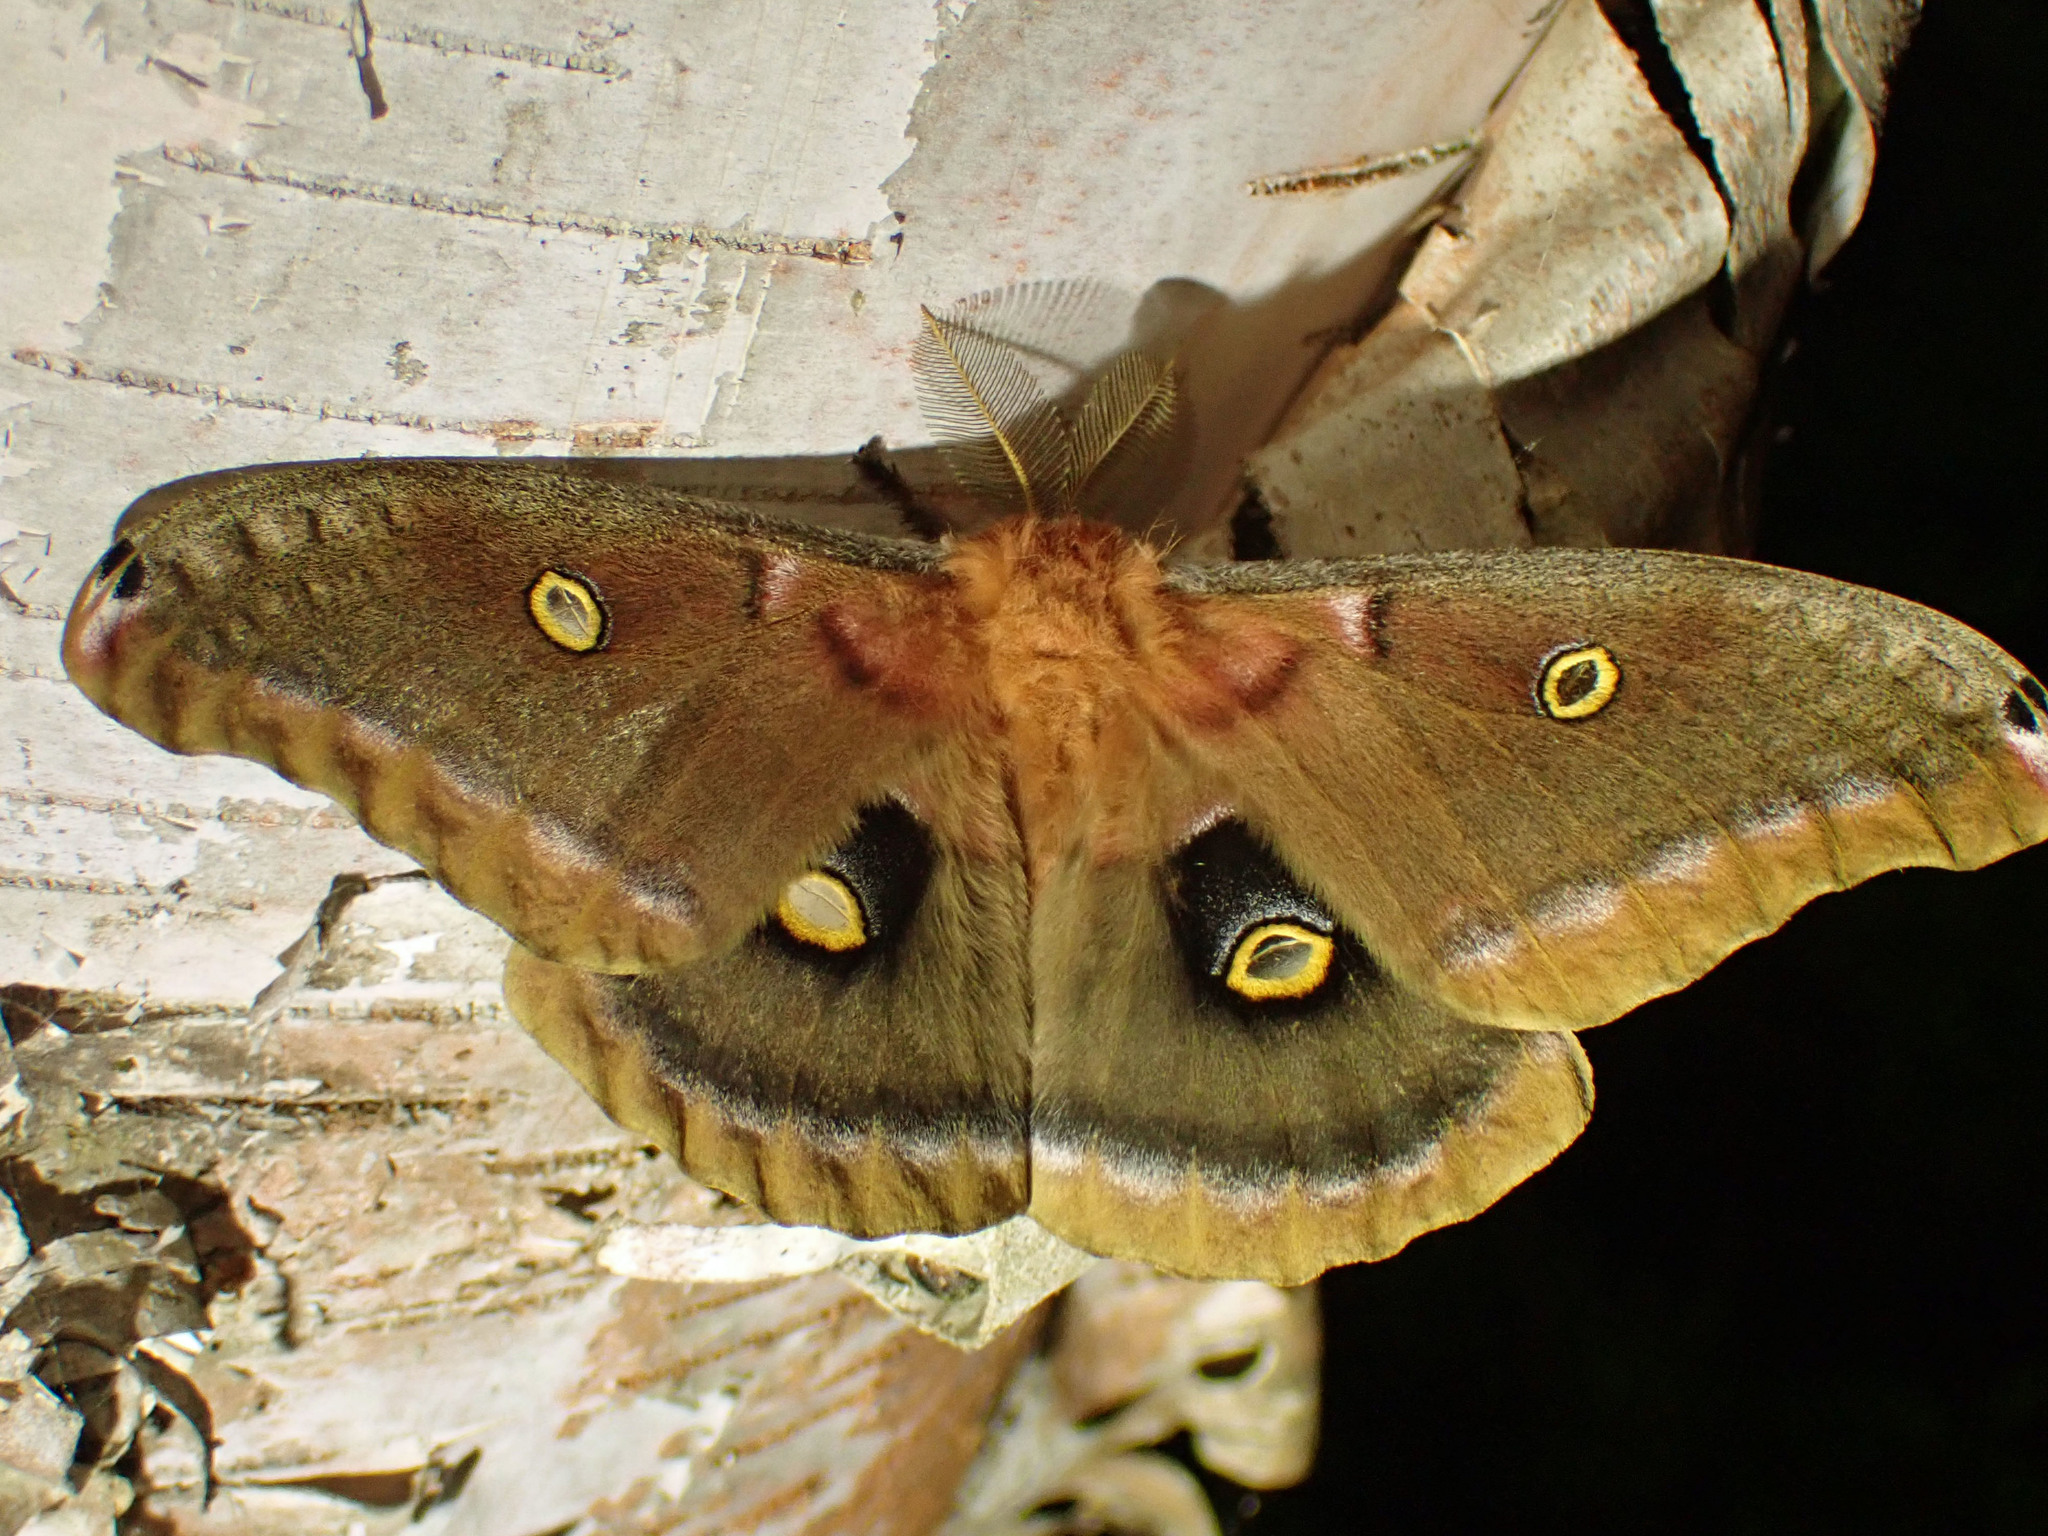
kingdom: Animalia
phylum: Arthropoda
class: Insecta
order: Lepidoptera
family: Saturniidae
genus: Antheraea
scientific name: Antheraea polyphemus
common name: Polyphemus moth
